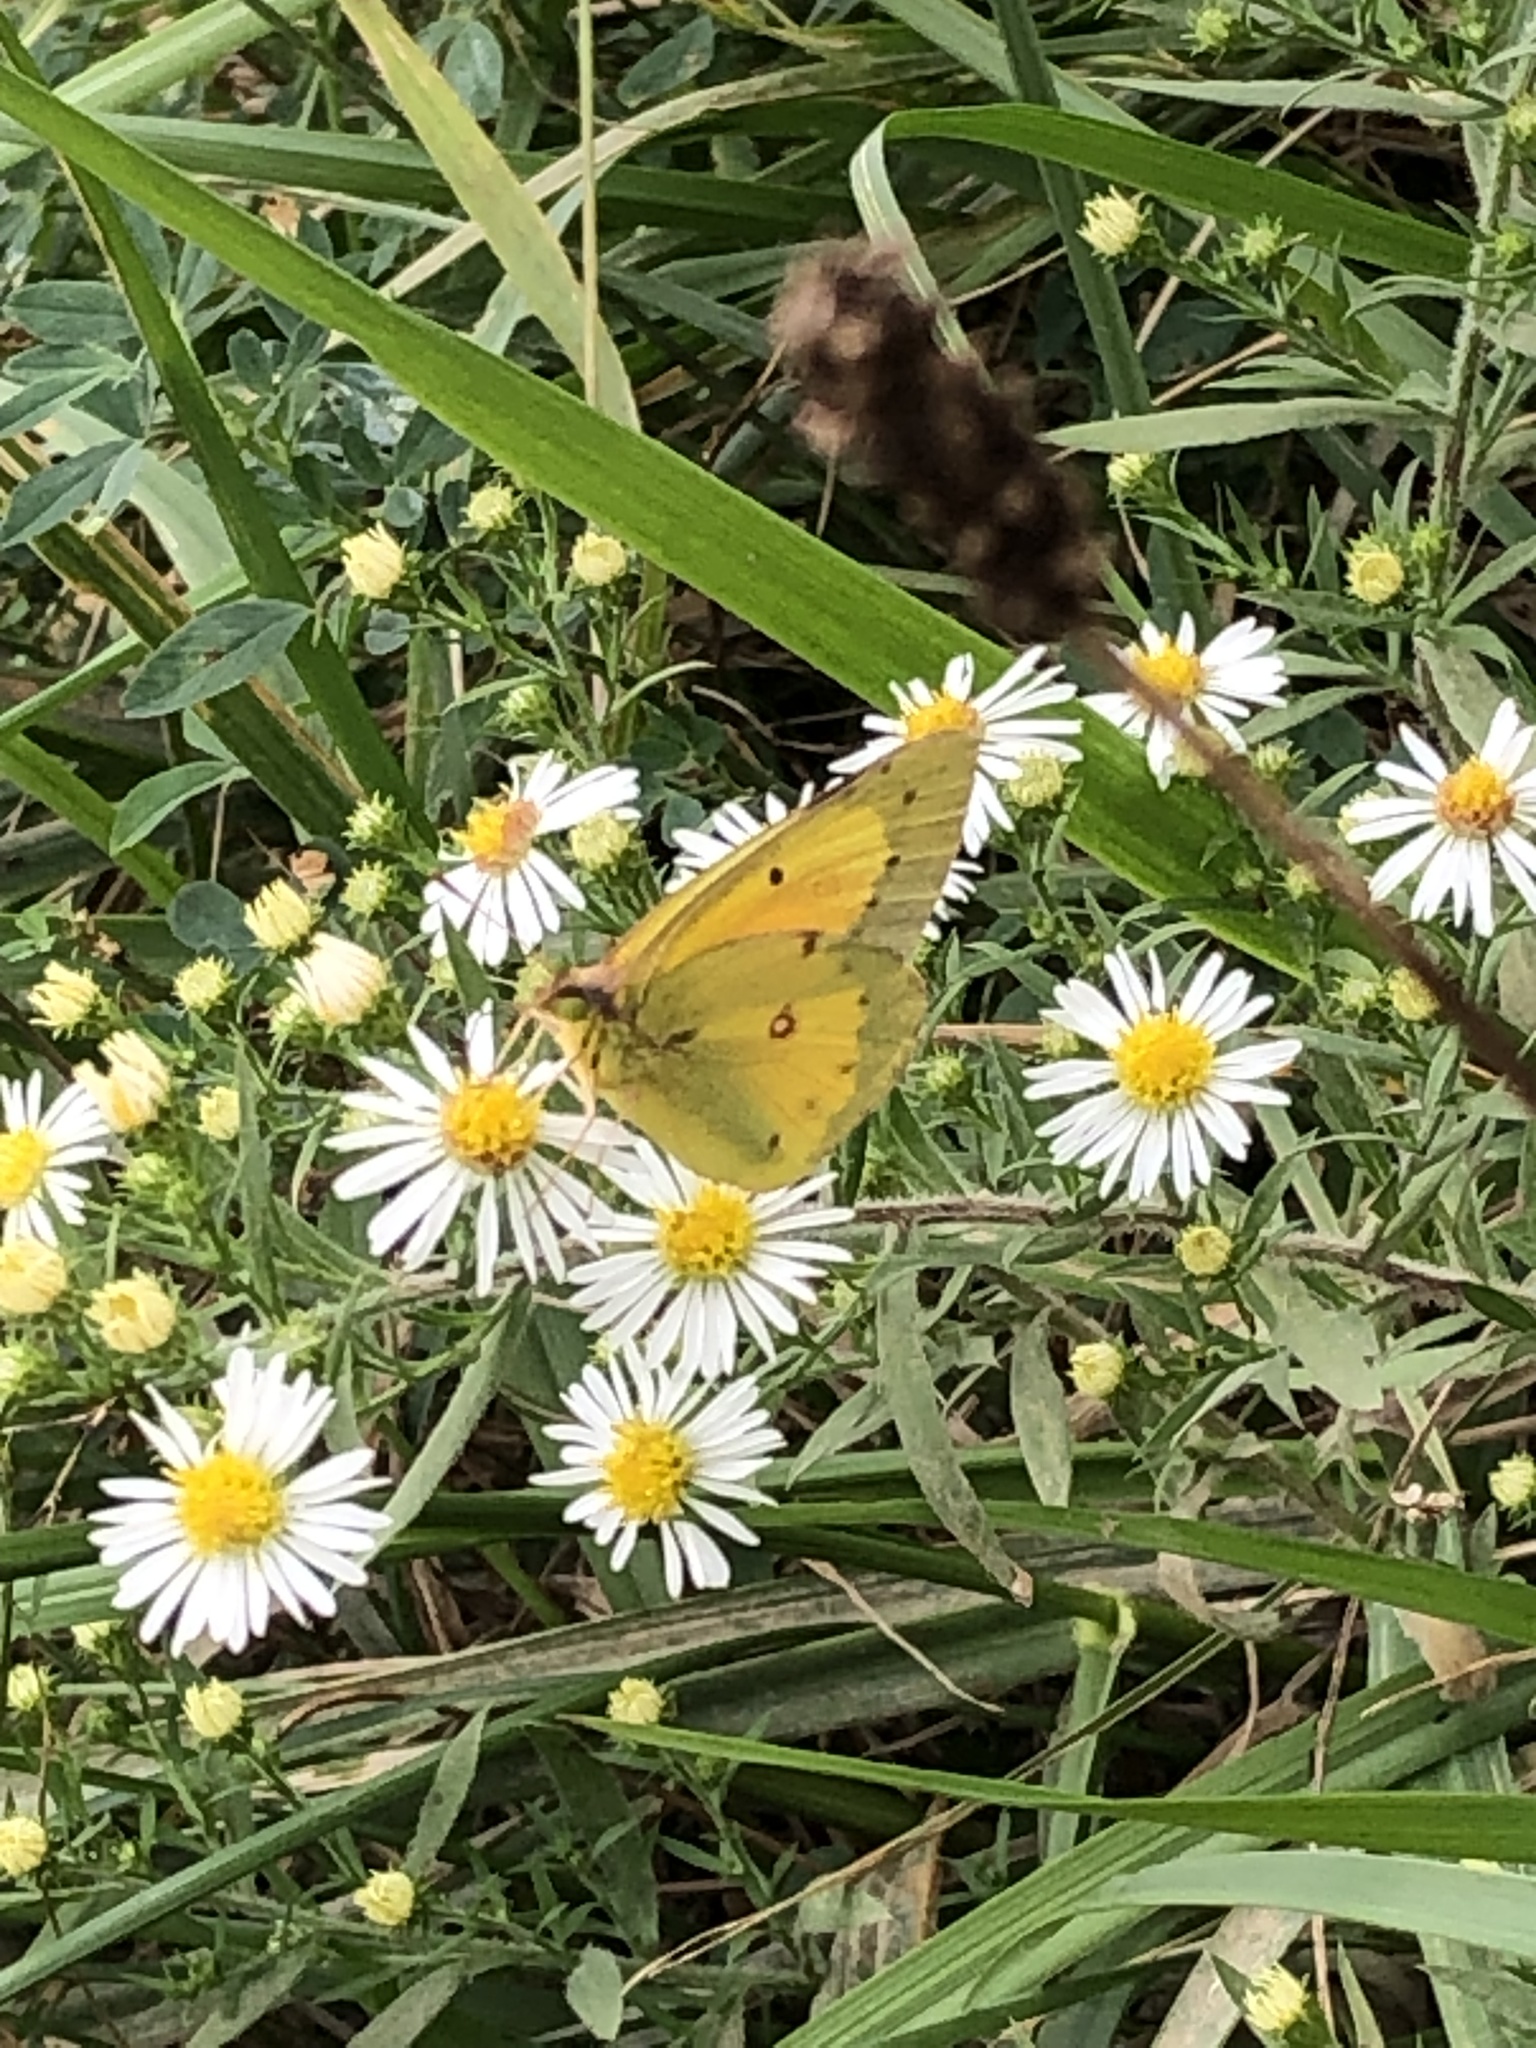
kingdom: Animalia
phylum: Arthropoda
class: Insecta
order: Lepidoptera
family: Pieridae
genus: Colias
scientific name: Colias eurytheme
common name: Alfalfa butterfly
